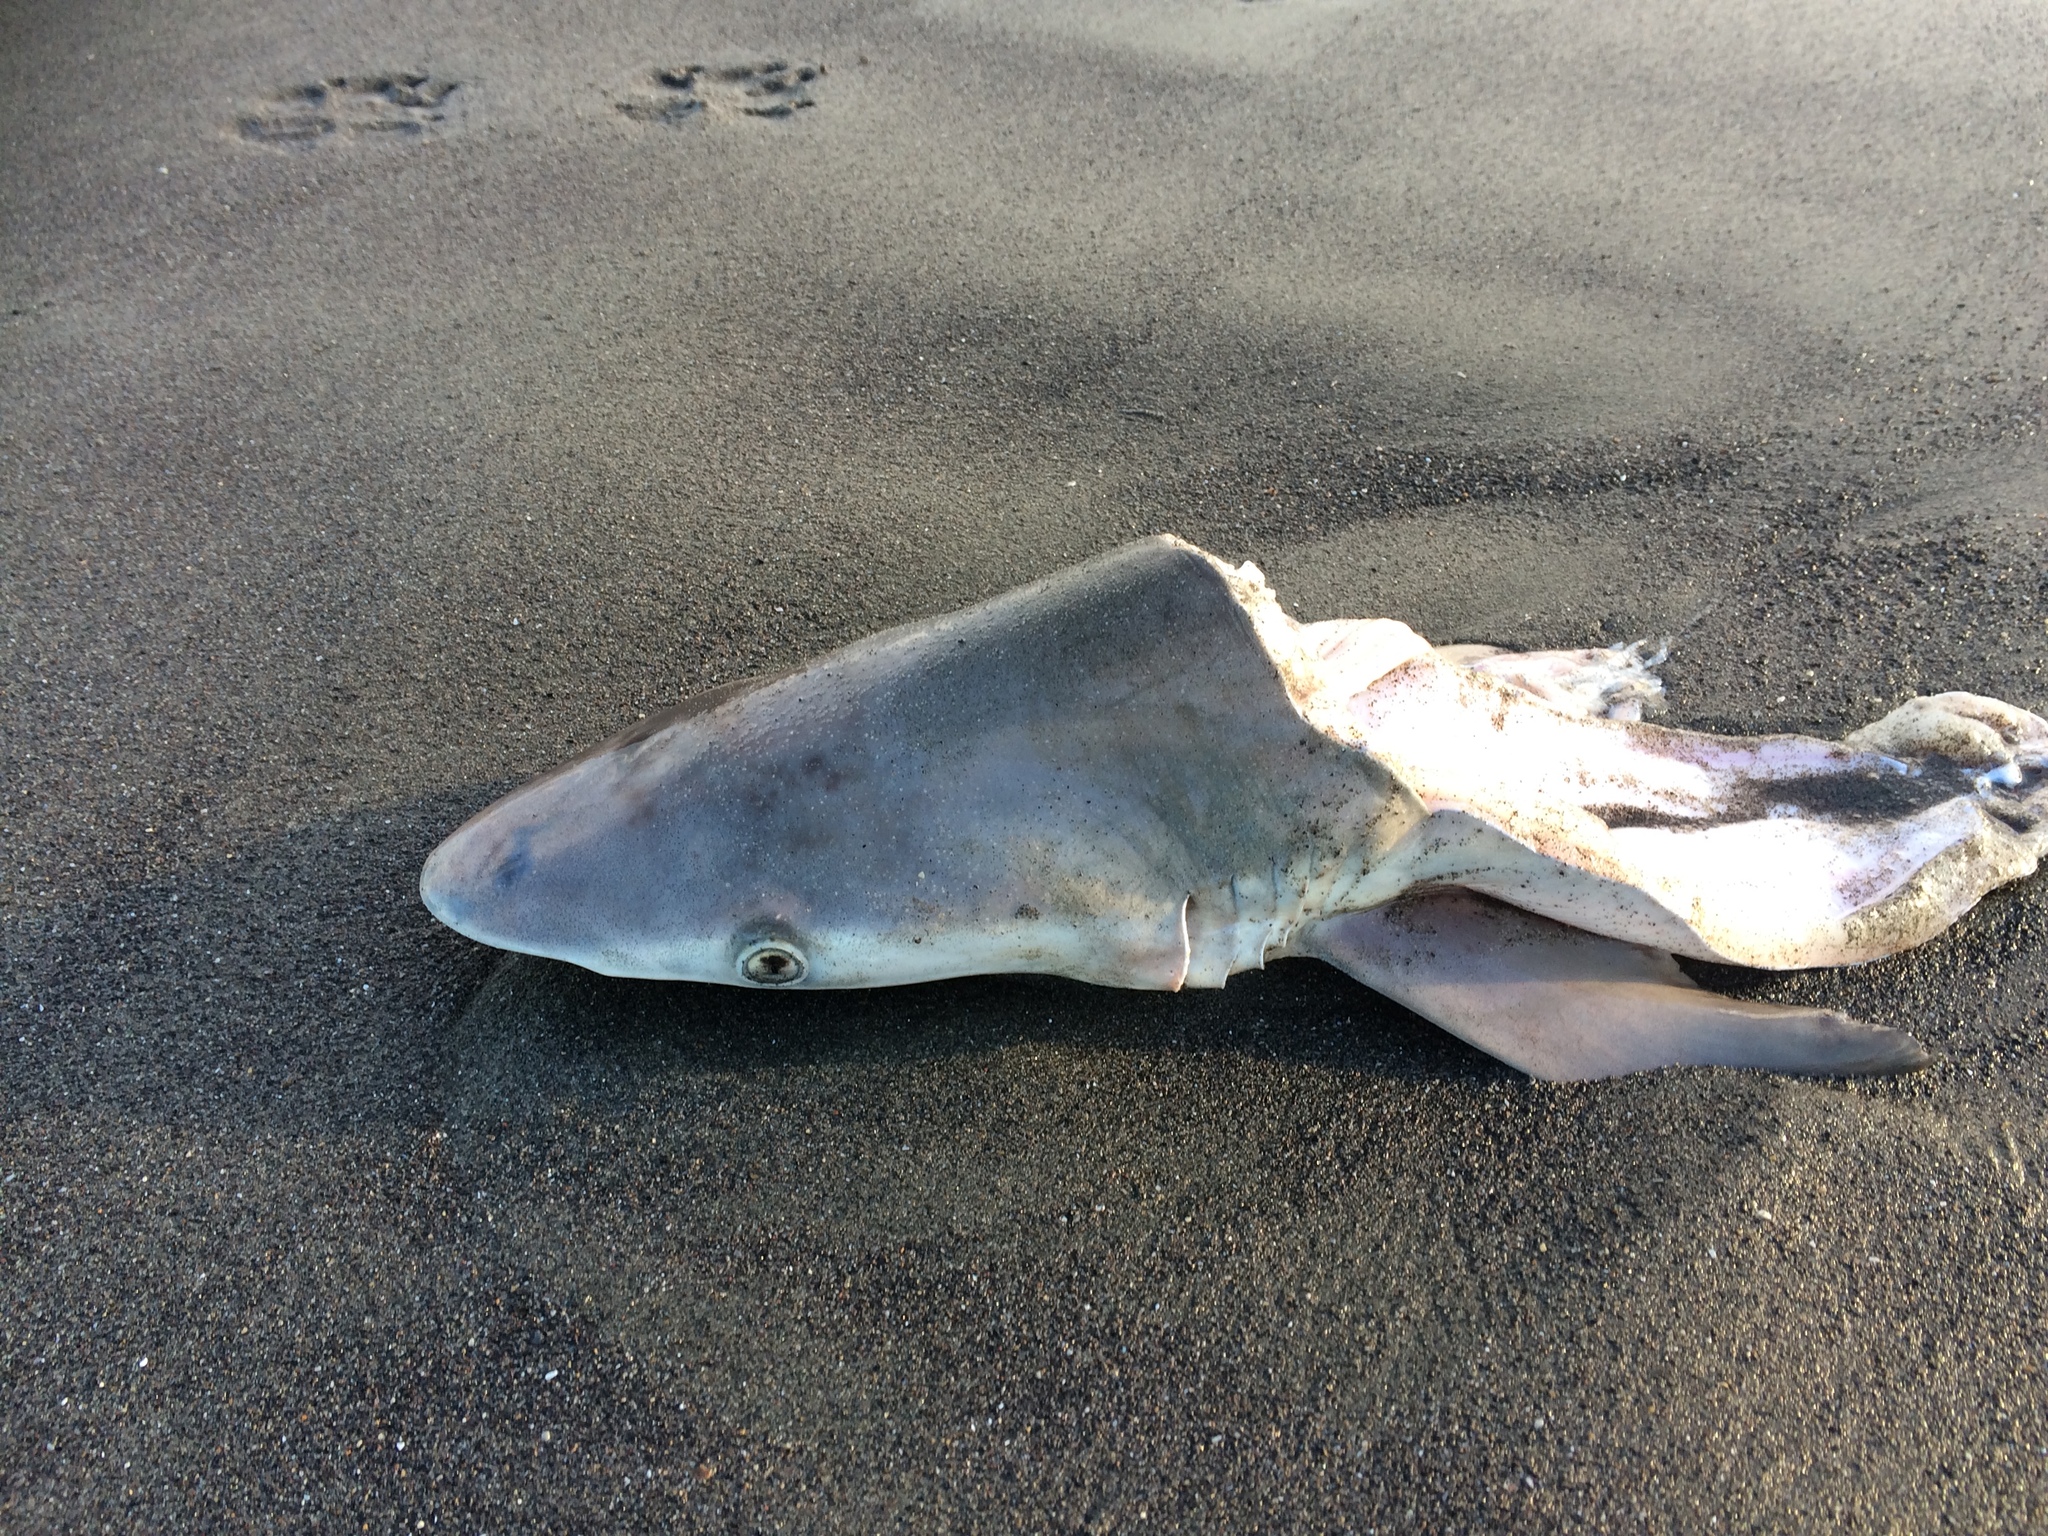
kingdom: Animalia
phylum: Chordata
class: Elasmobranchii
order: Carcharhiniformes
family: Carcharhinidae
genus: Carcharhinus
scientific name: Carcharhinus brachyurus
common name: Bronze whaler
